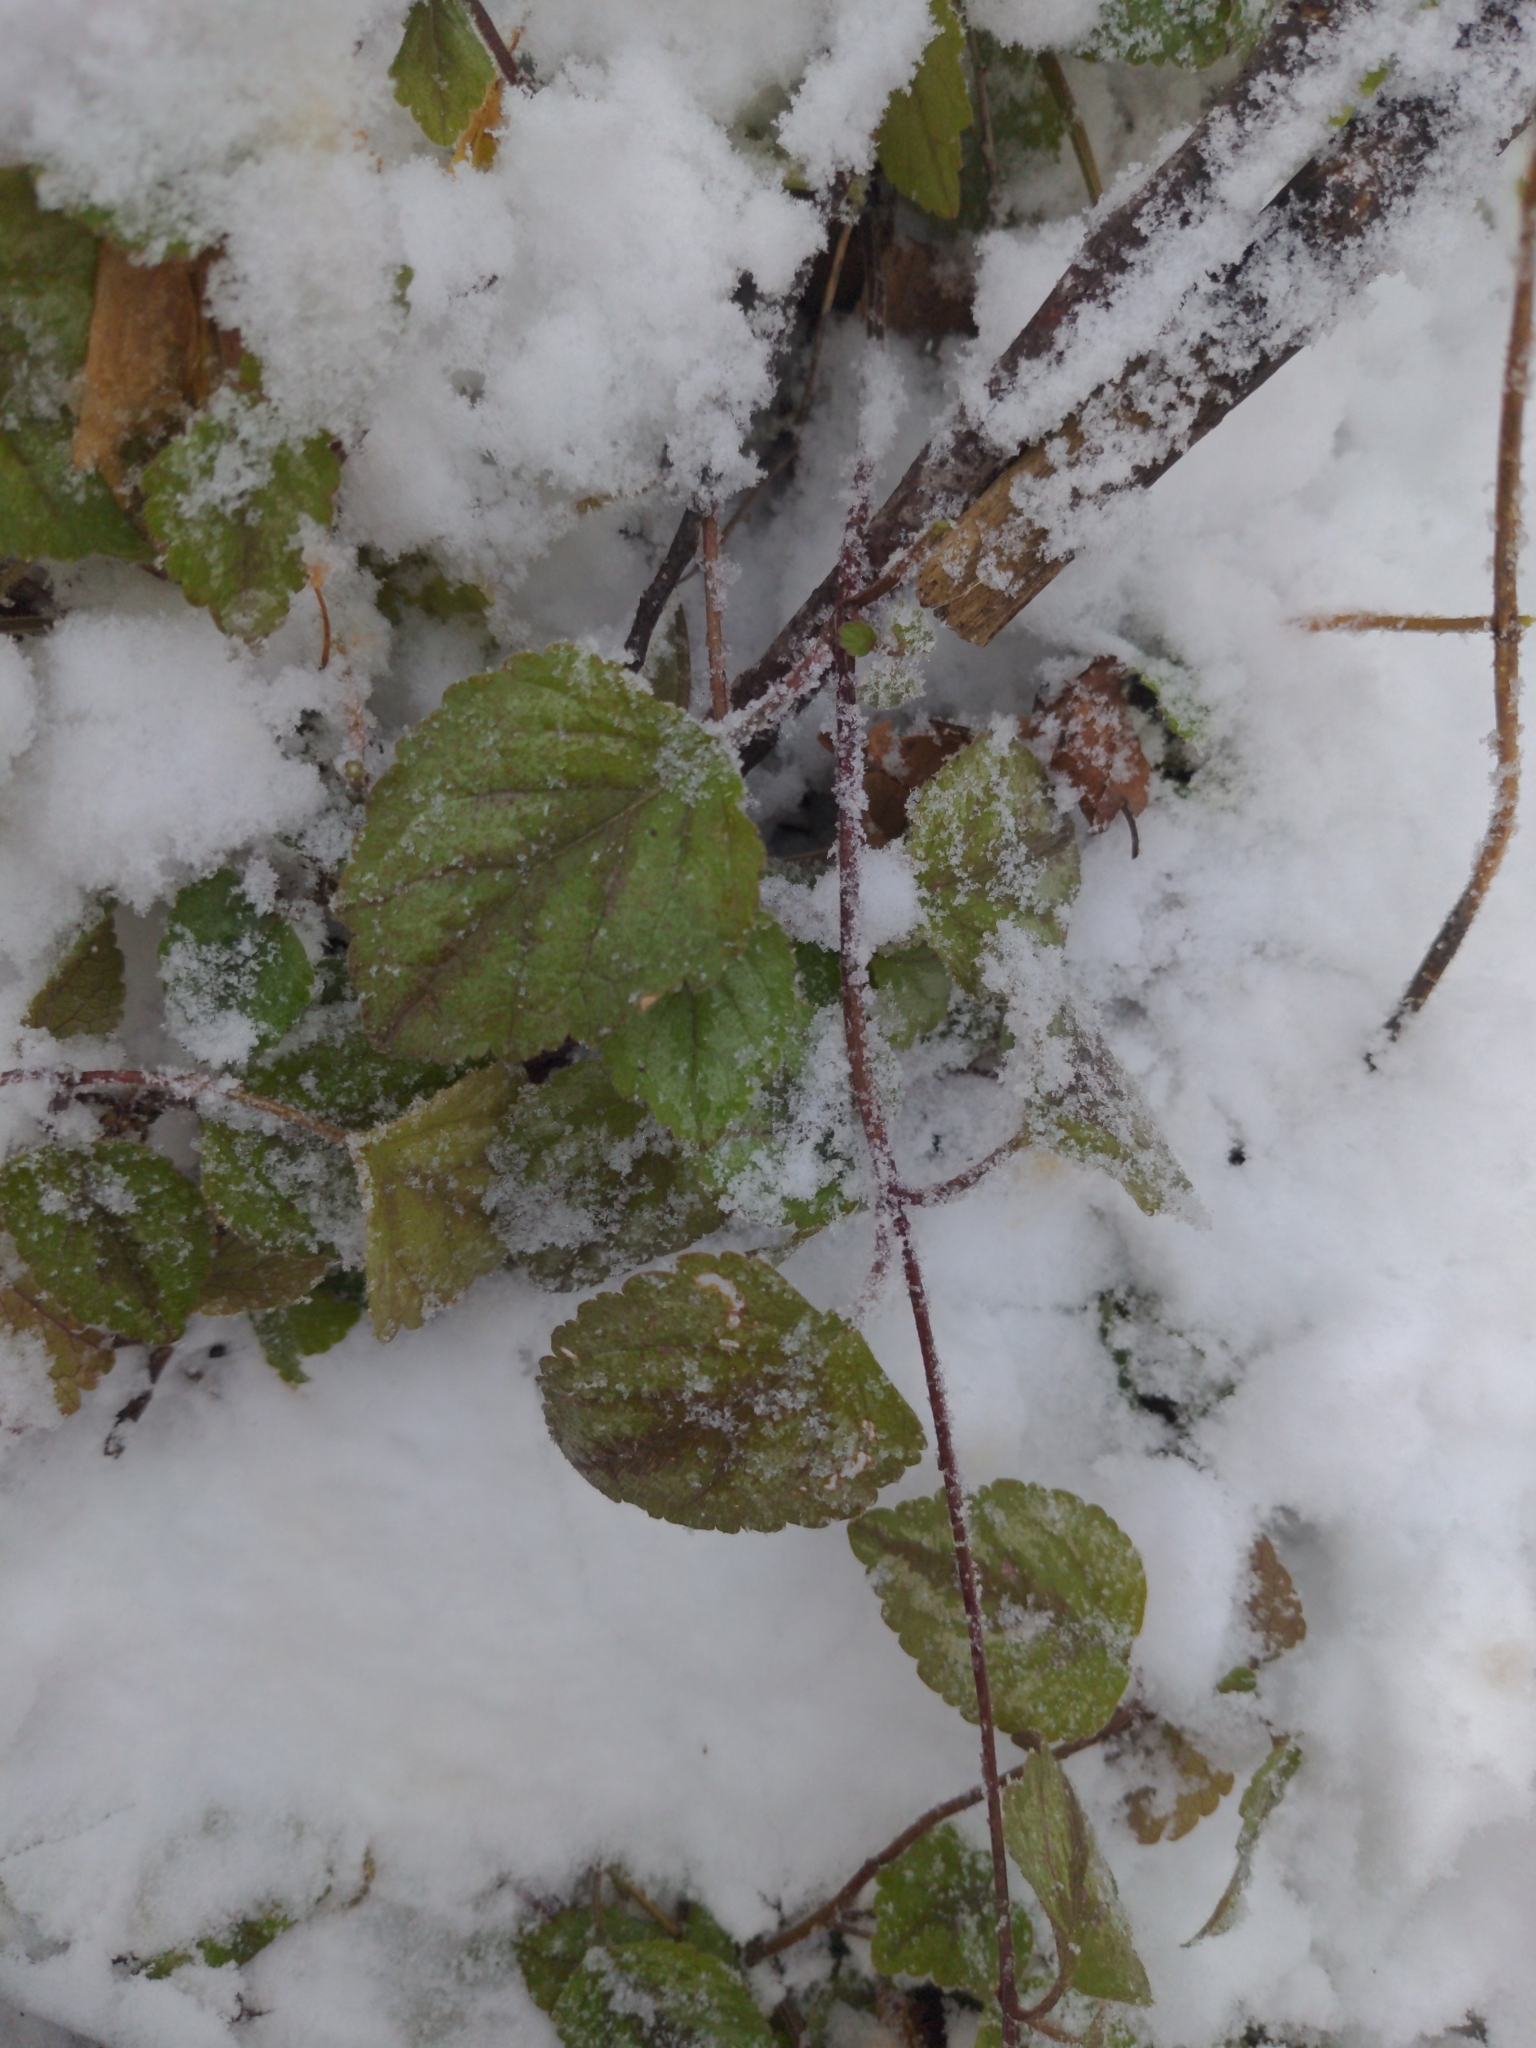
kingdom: Plantae
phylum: Tracheophyta
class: Magnoliopsida
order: Lamiales
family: Lamiaceae
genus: Lamium
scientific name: Lamium galeobdolon
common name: Yellow archangel
